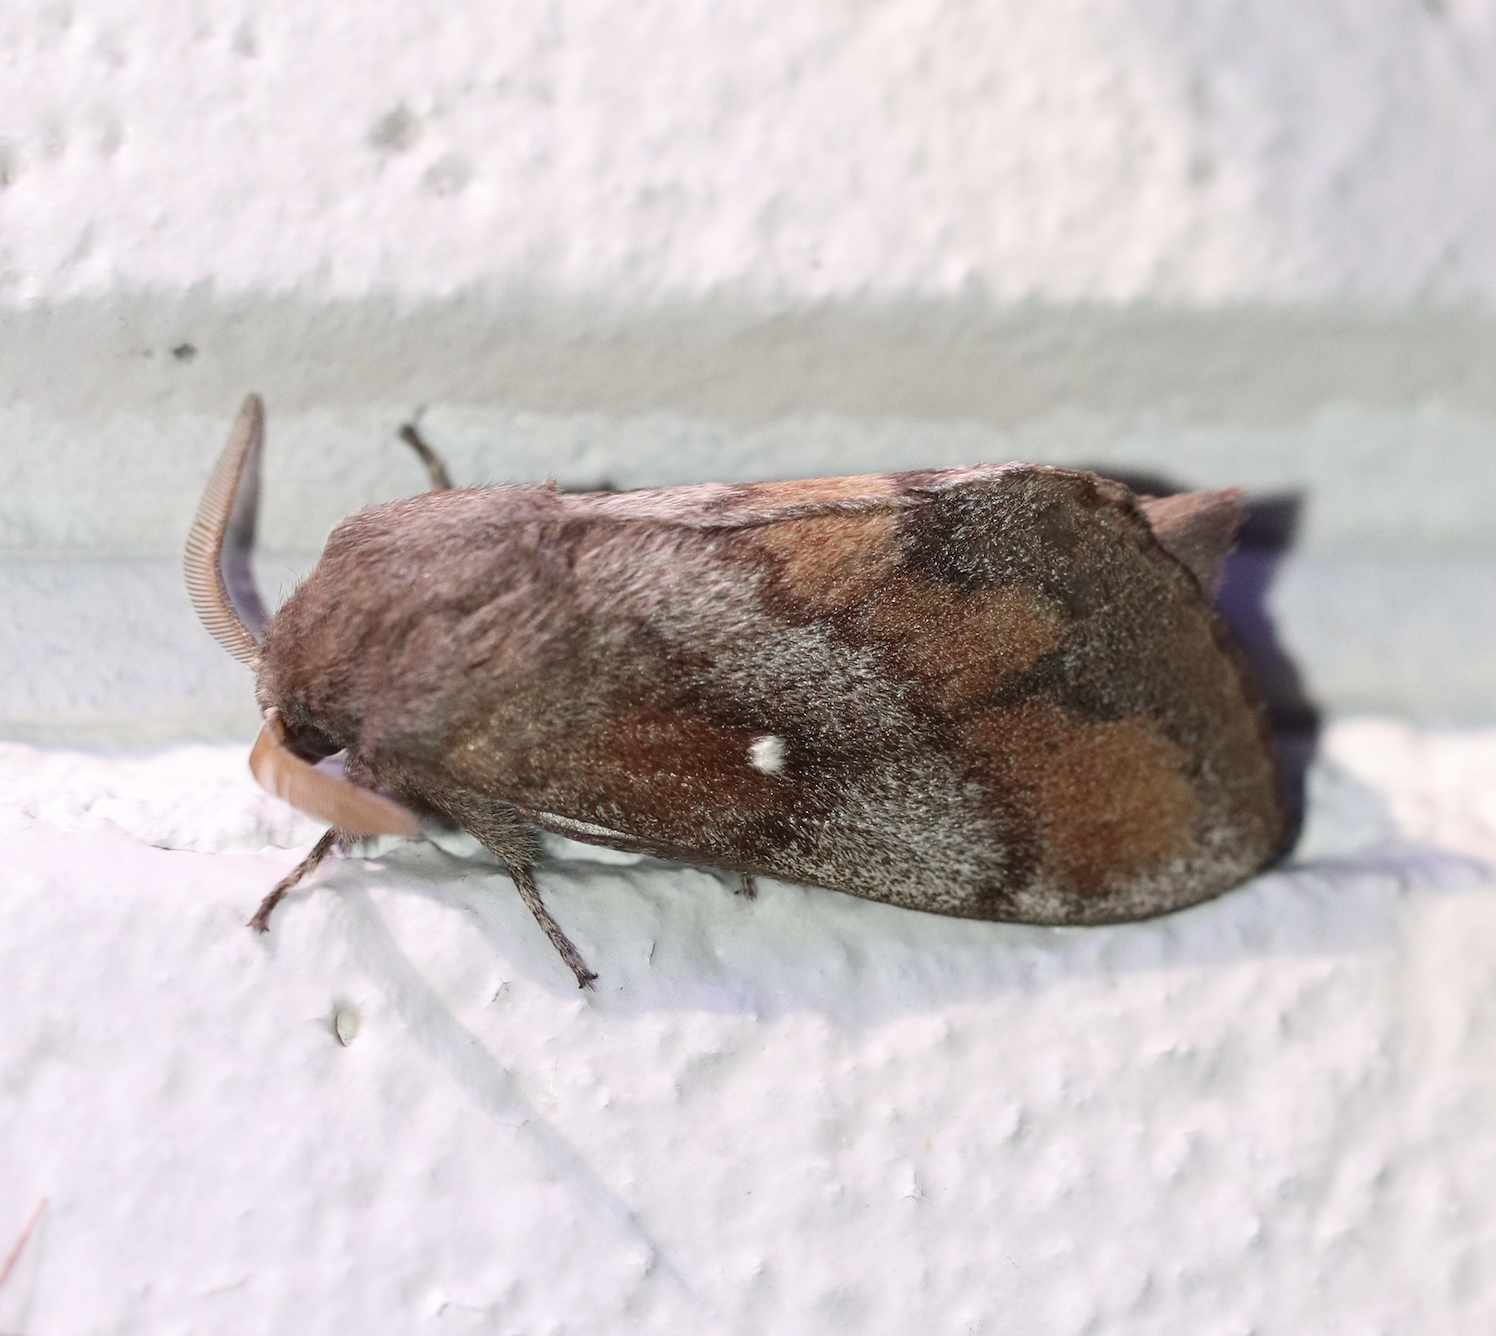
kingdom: Animalia
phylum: Arthropoda
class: Insecta
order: Lepidoptera
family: Lasiocampidae
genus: Dendrolimus
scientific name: Dendrolimus pini
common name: Pine-tree lappet
